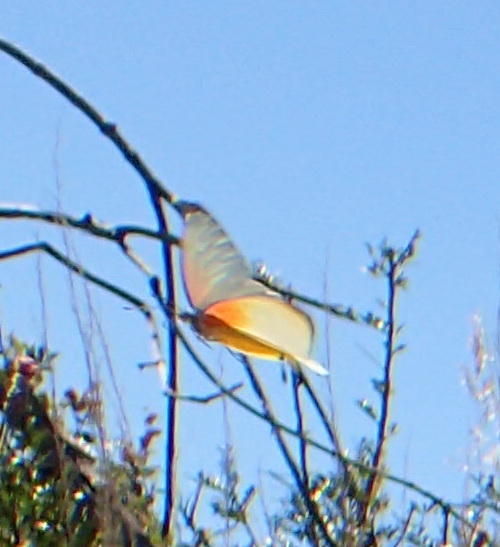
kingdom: Animalia
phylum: Arthropoda
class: Insecta
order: Lepidoptera
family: Pieridae
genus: Mylothris
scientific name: Mylothris agathina
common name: Eastern dotted border
